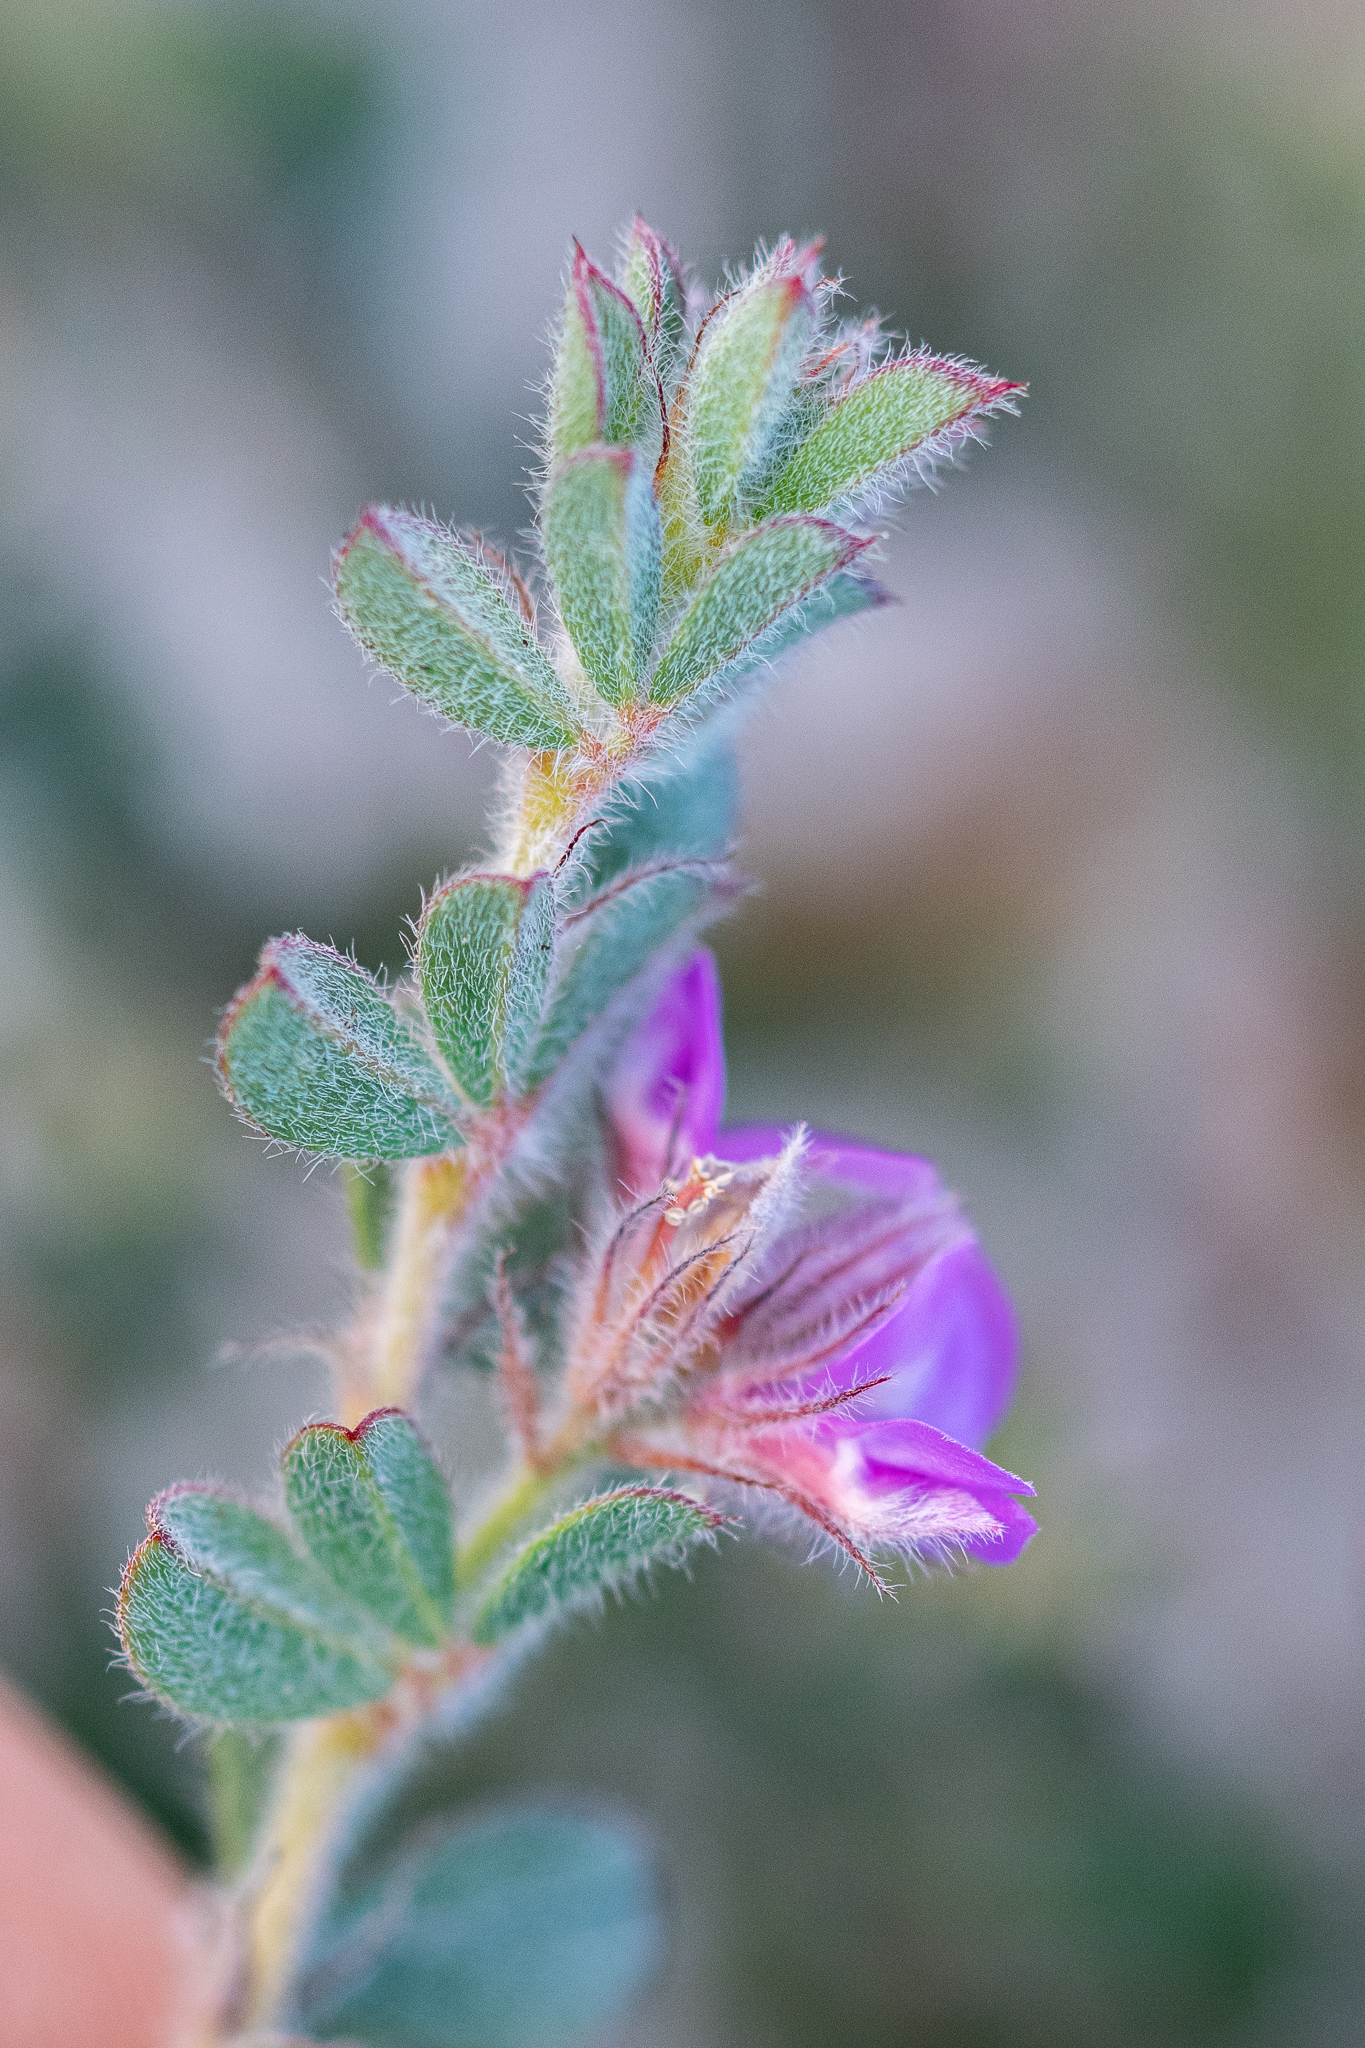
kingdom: Plantae
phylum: Tracheophyta
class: Magnoliopsida
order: Fabales
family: Fabaceae
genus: Indigofera
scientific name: Indigofera glomerata
